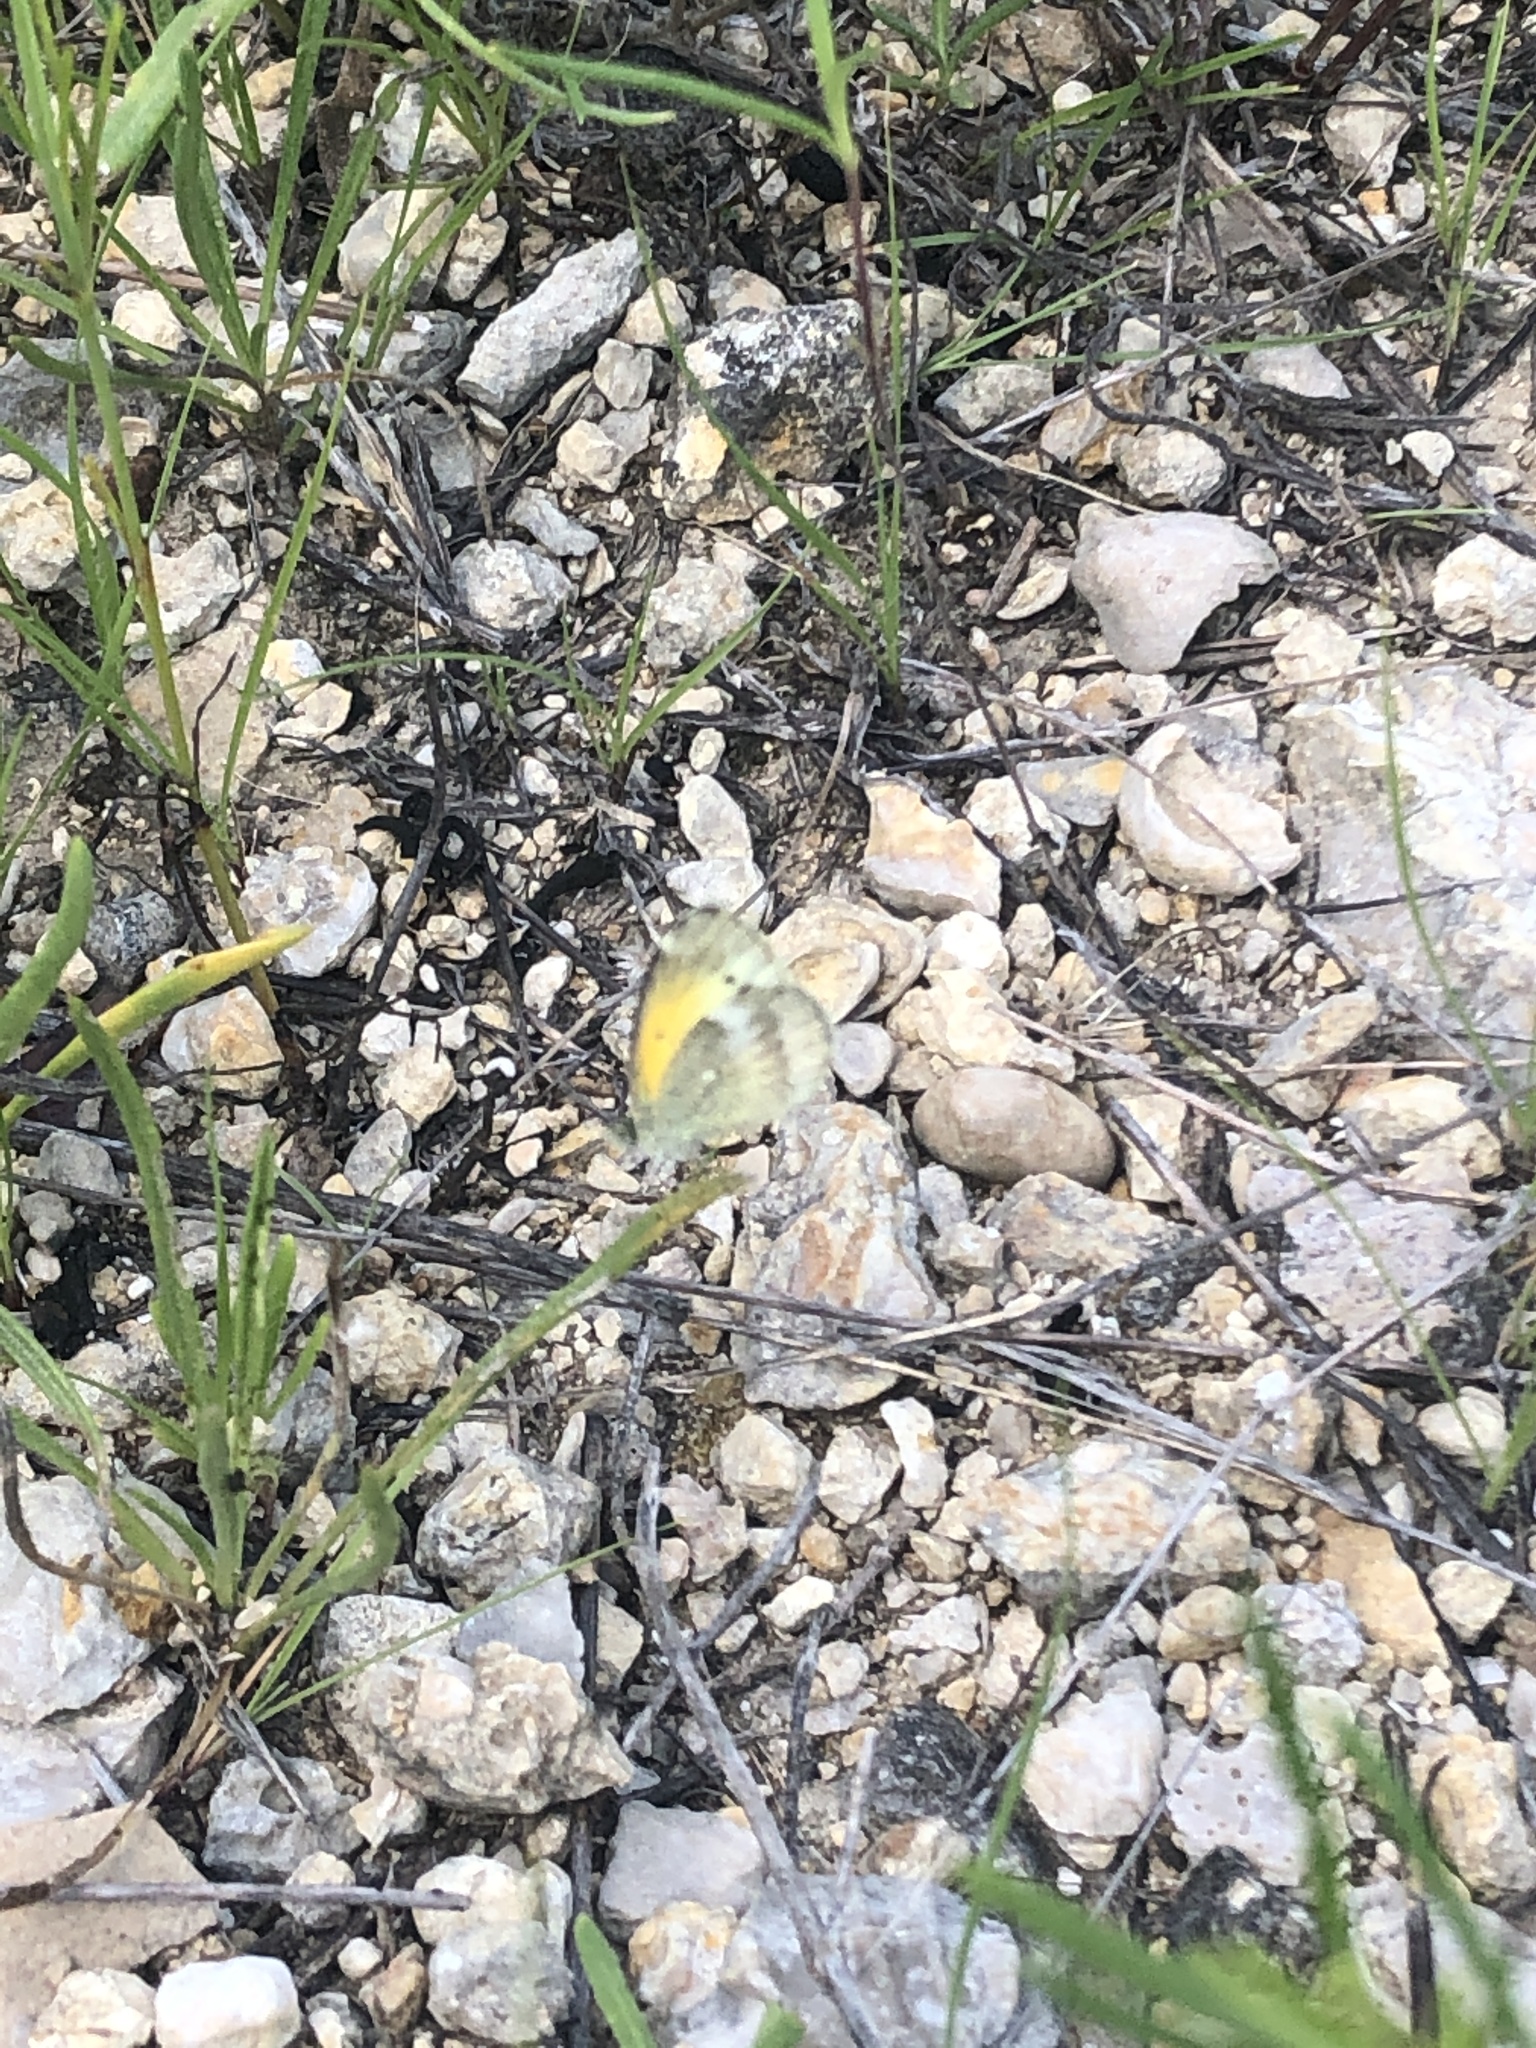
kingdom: Animalia
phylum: Arthropoda
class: Insecta
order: Lepidoptera
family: Pieridae
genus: Nathalis
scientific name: Nathalis iole
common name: Dainty sulphur
